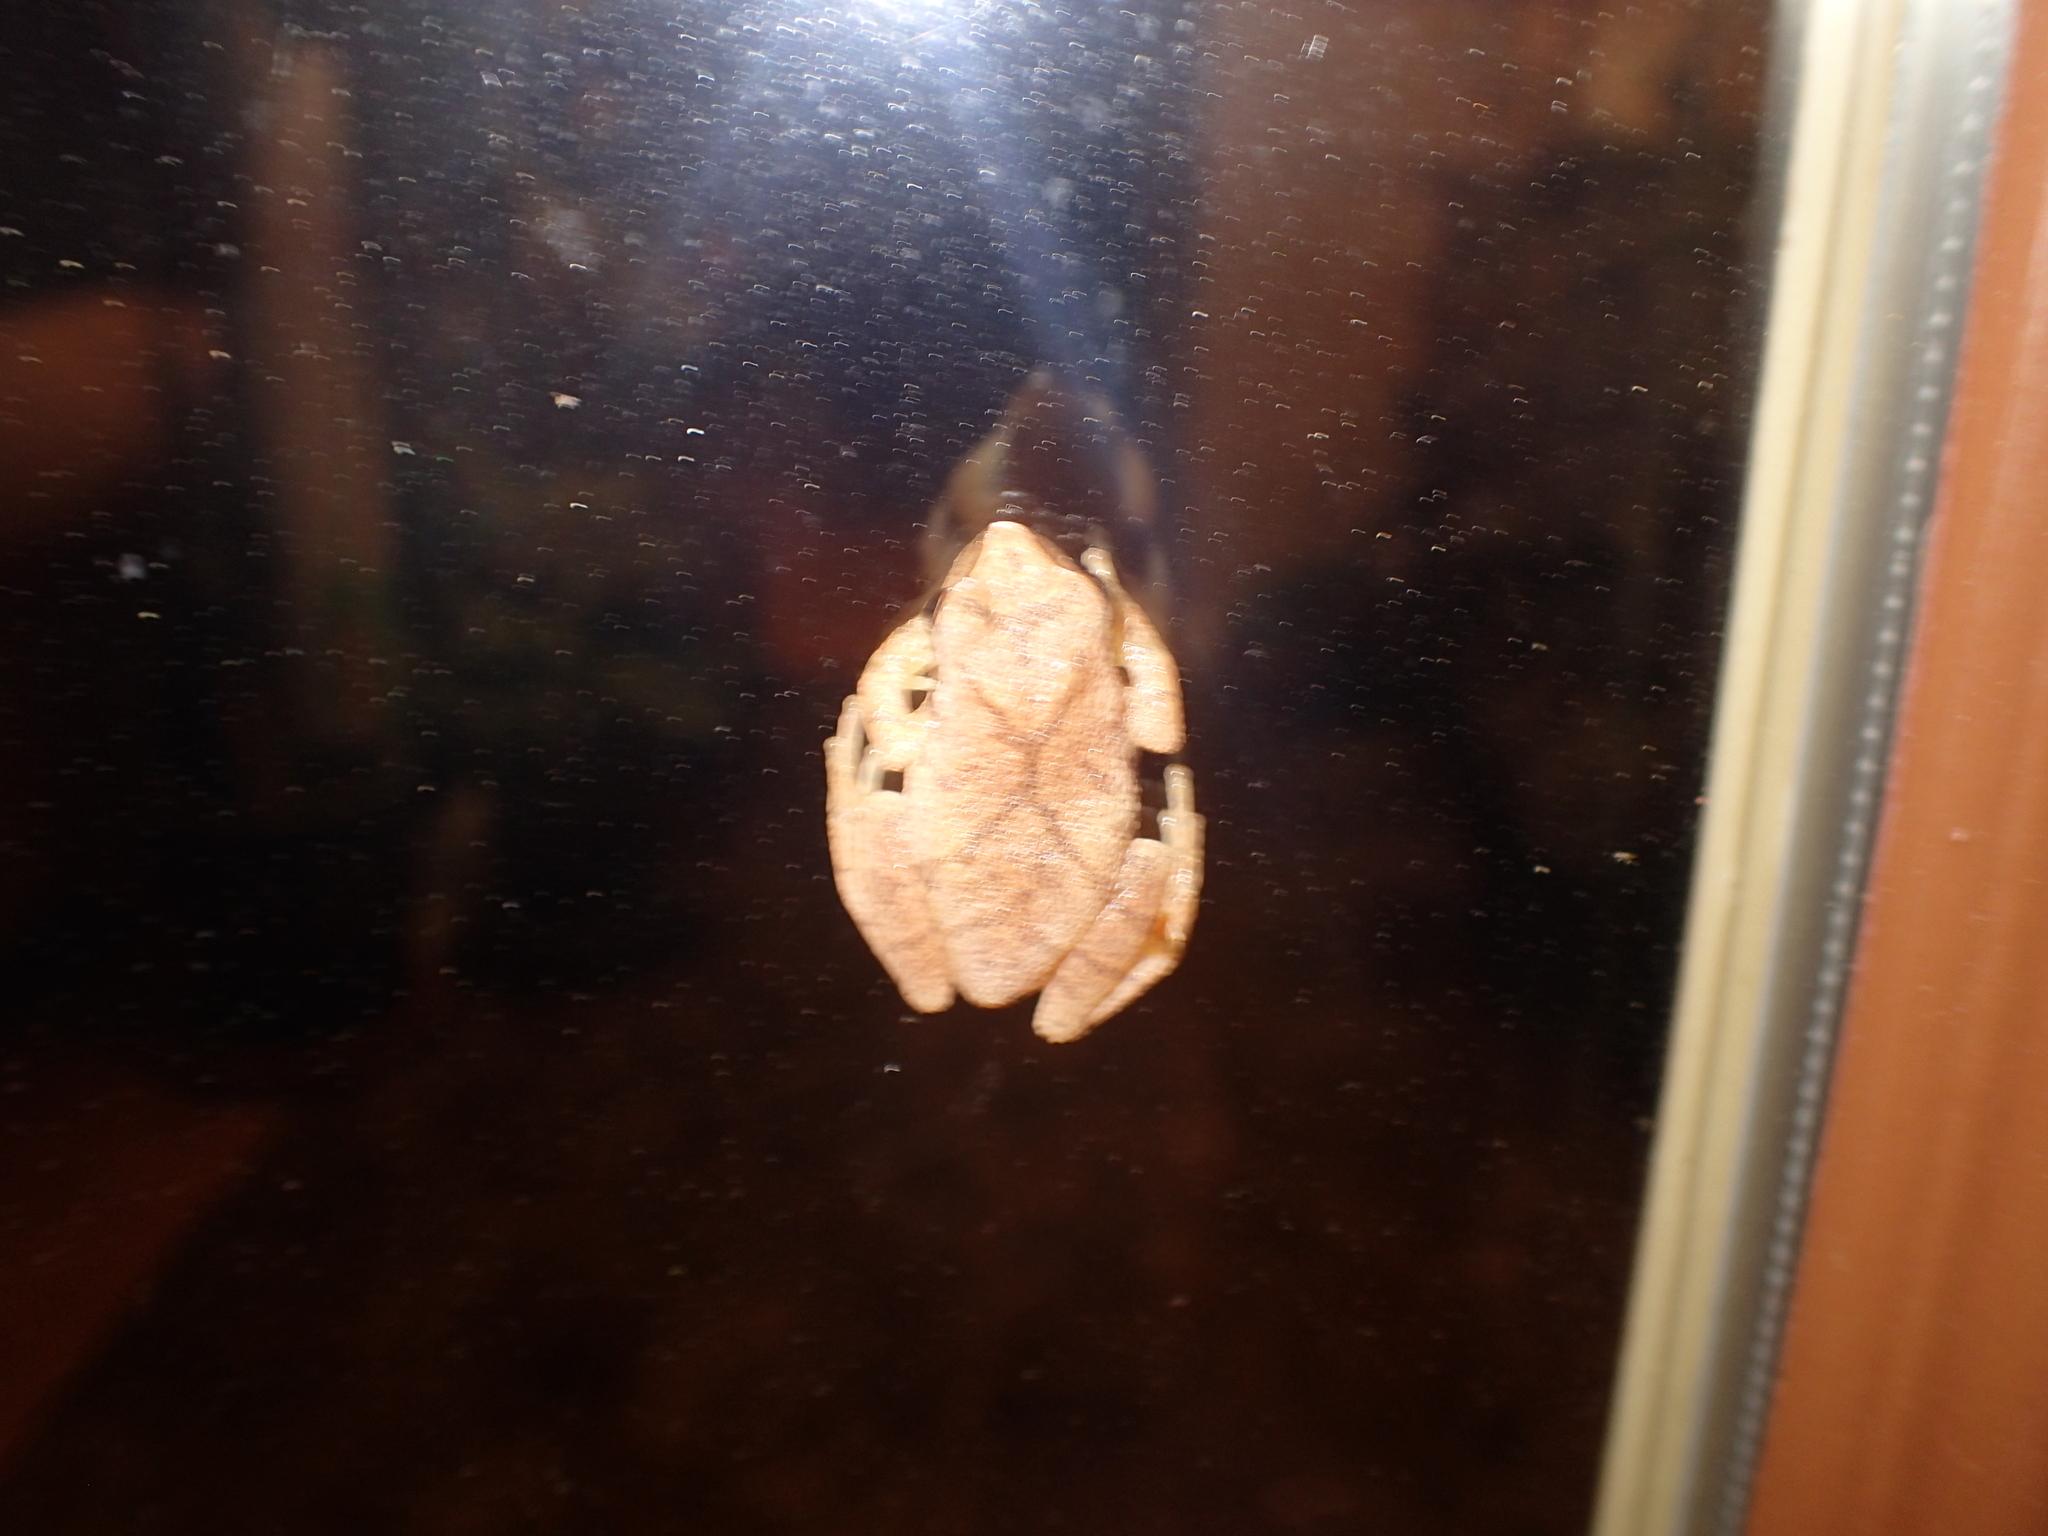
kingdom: Animalia
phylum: Chordata
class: Amphibia
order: Anura
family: Hylidae
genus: Pseudacris
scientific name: Pseudacris crucifer
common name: Spring peeper
